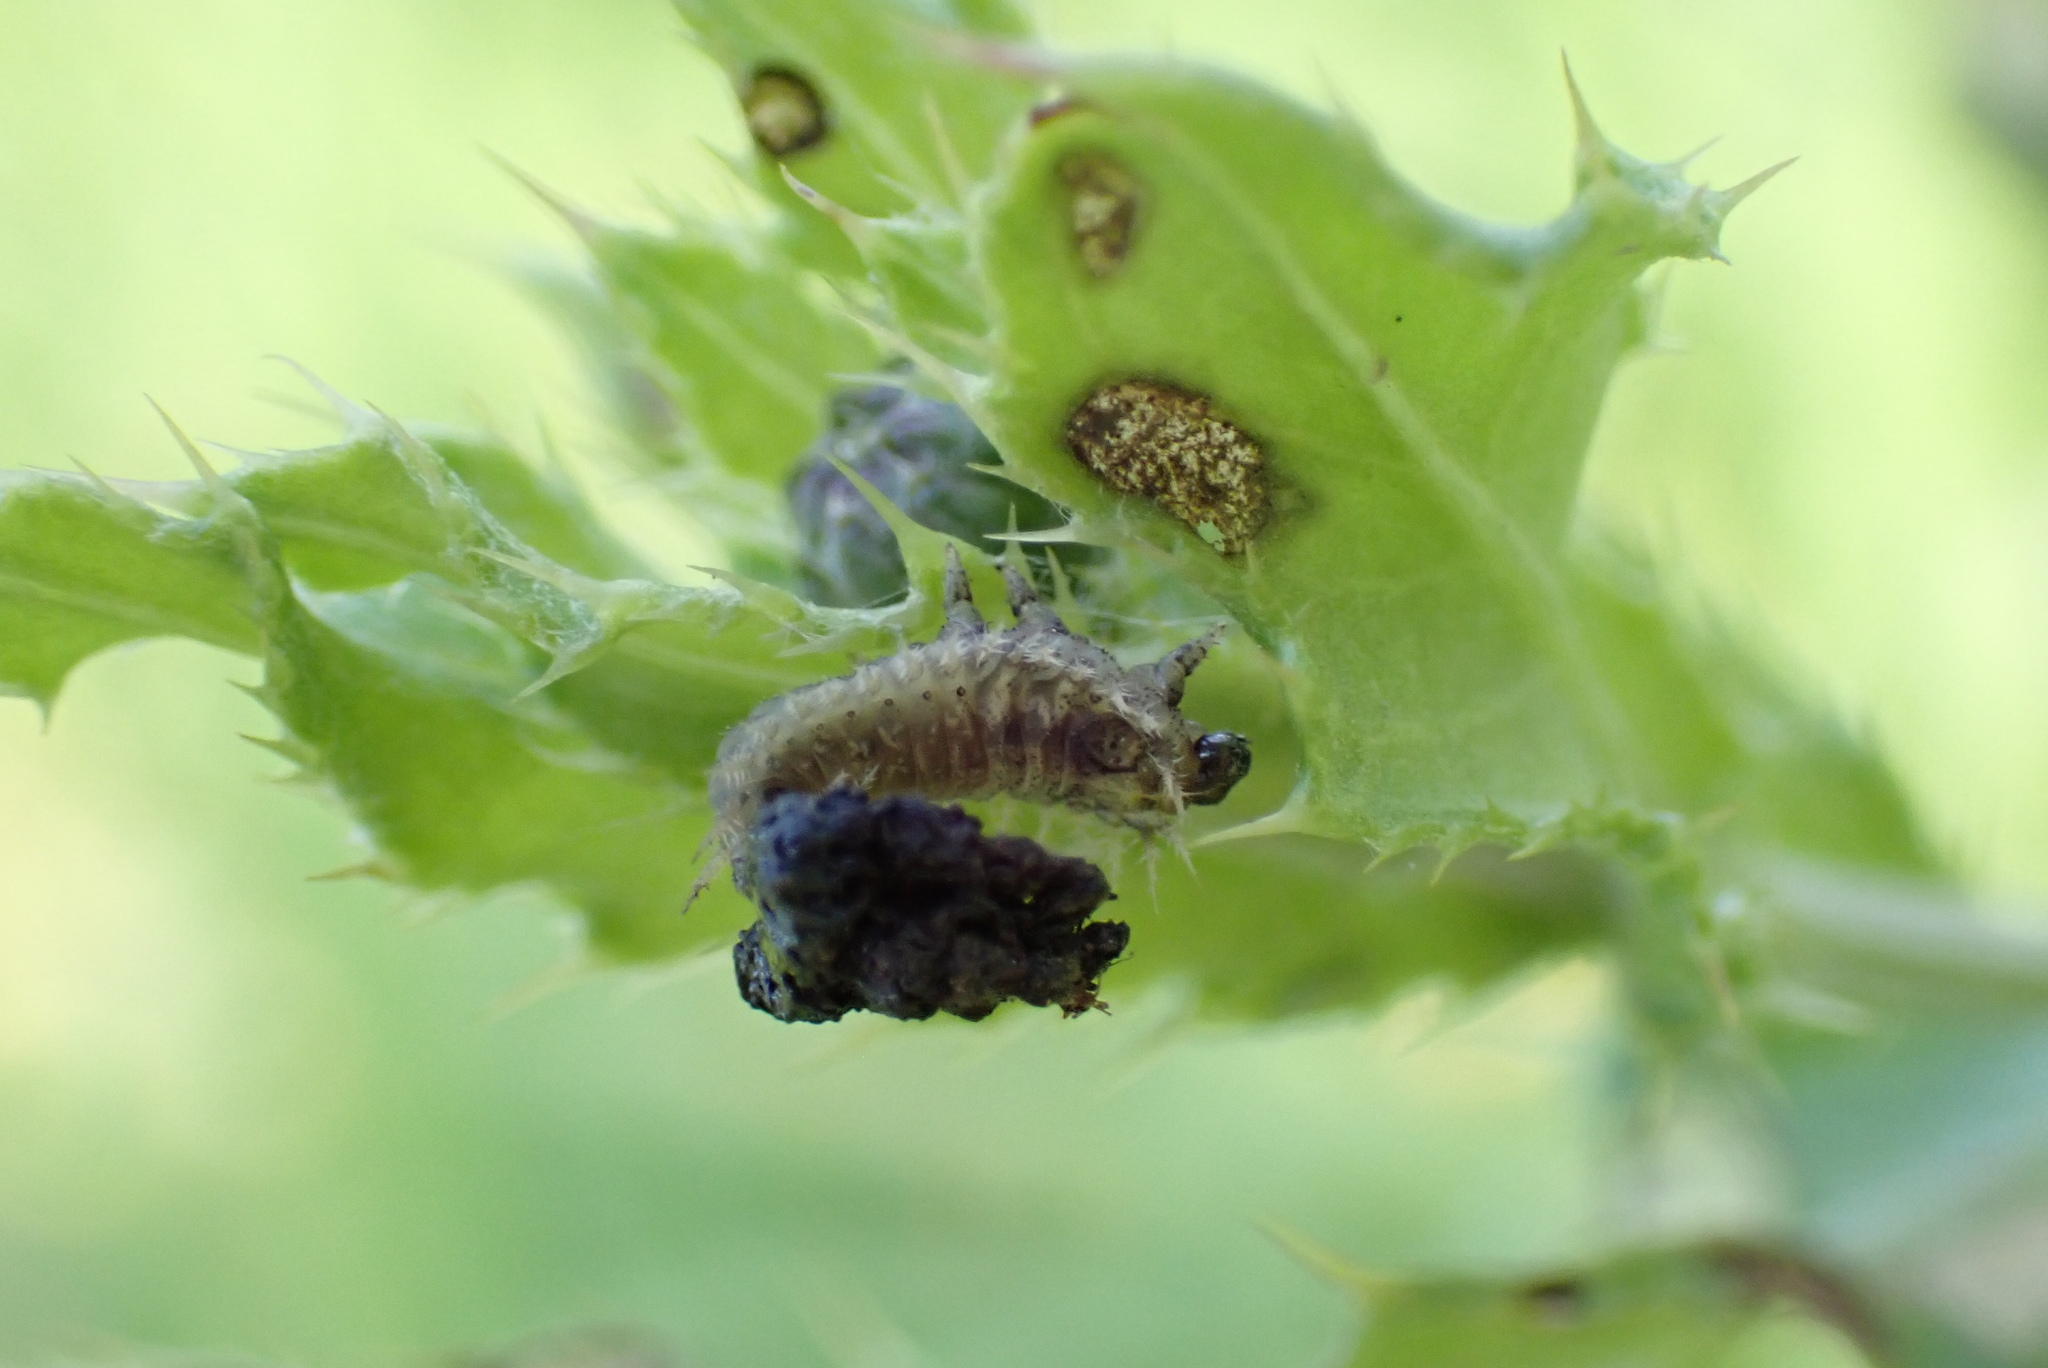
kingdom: Animalia
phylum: Arthropoda
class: Insecta
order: Coleoptera
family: Chrysomelidae
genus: Cassida
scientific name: Cassida rubiginosa
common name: Thistle tortoise beetle
